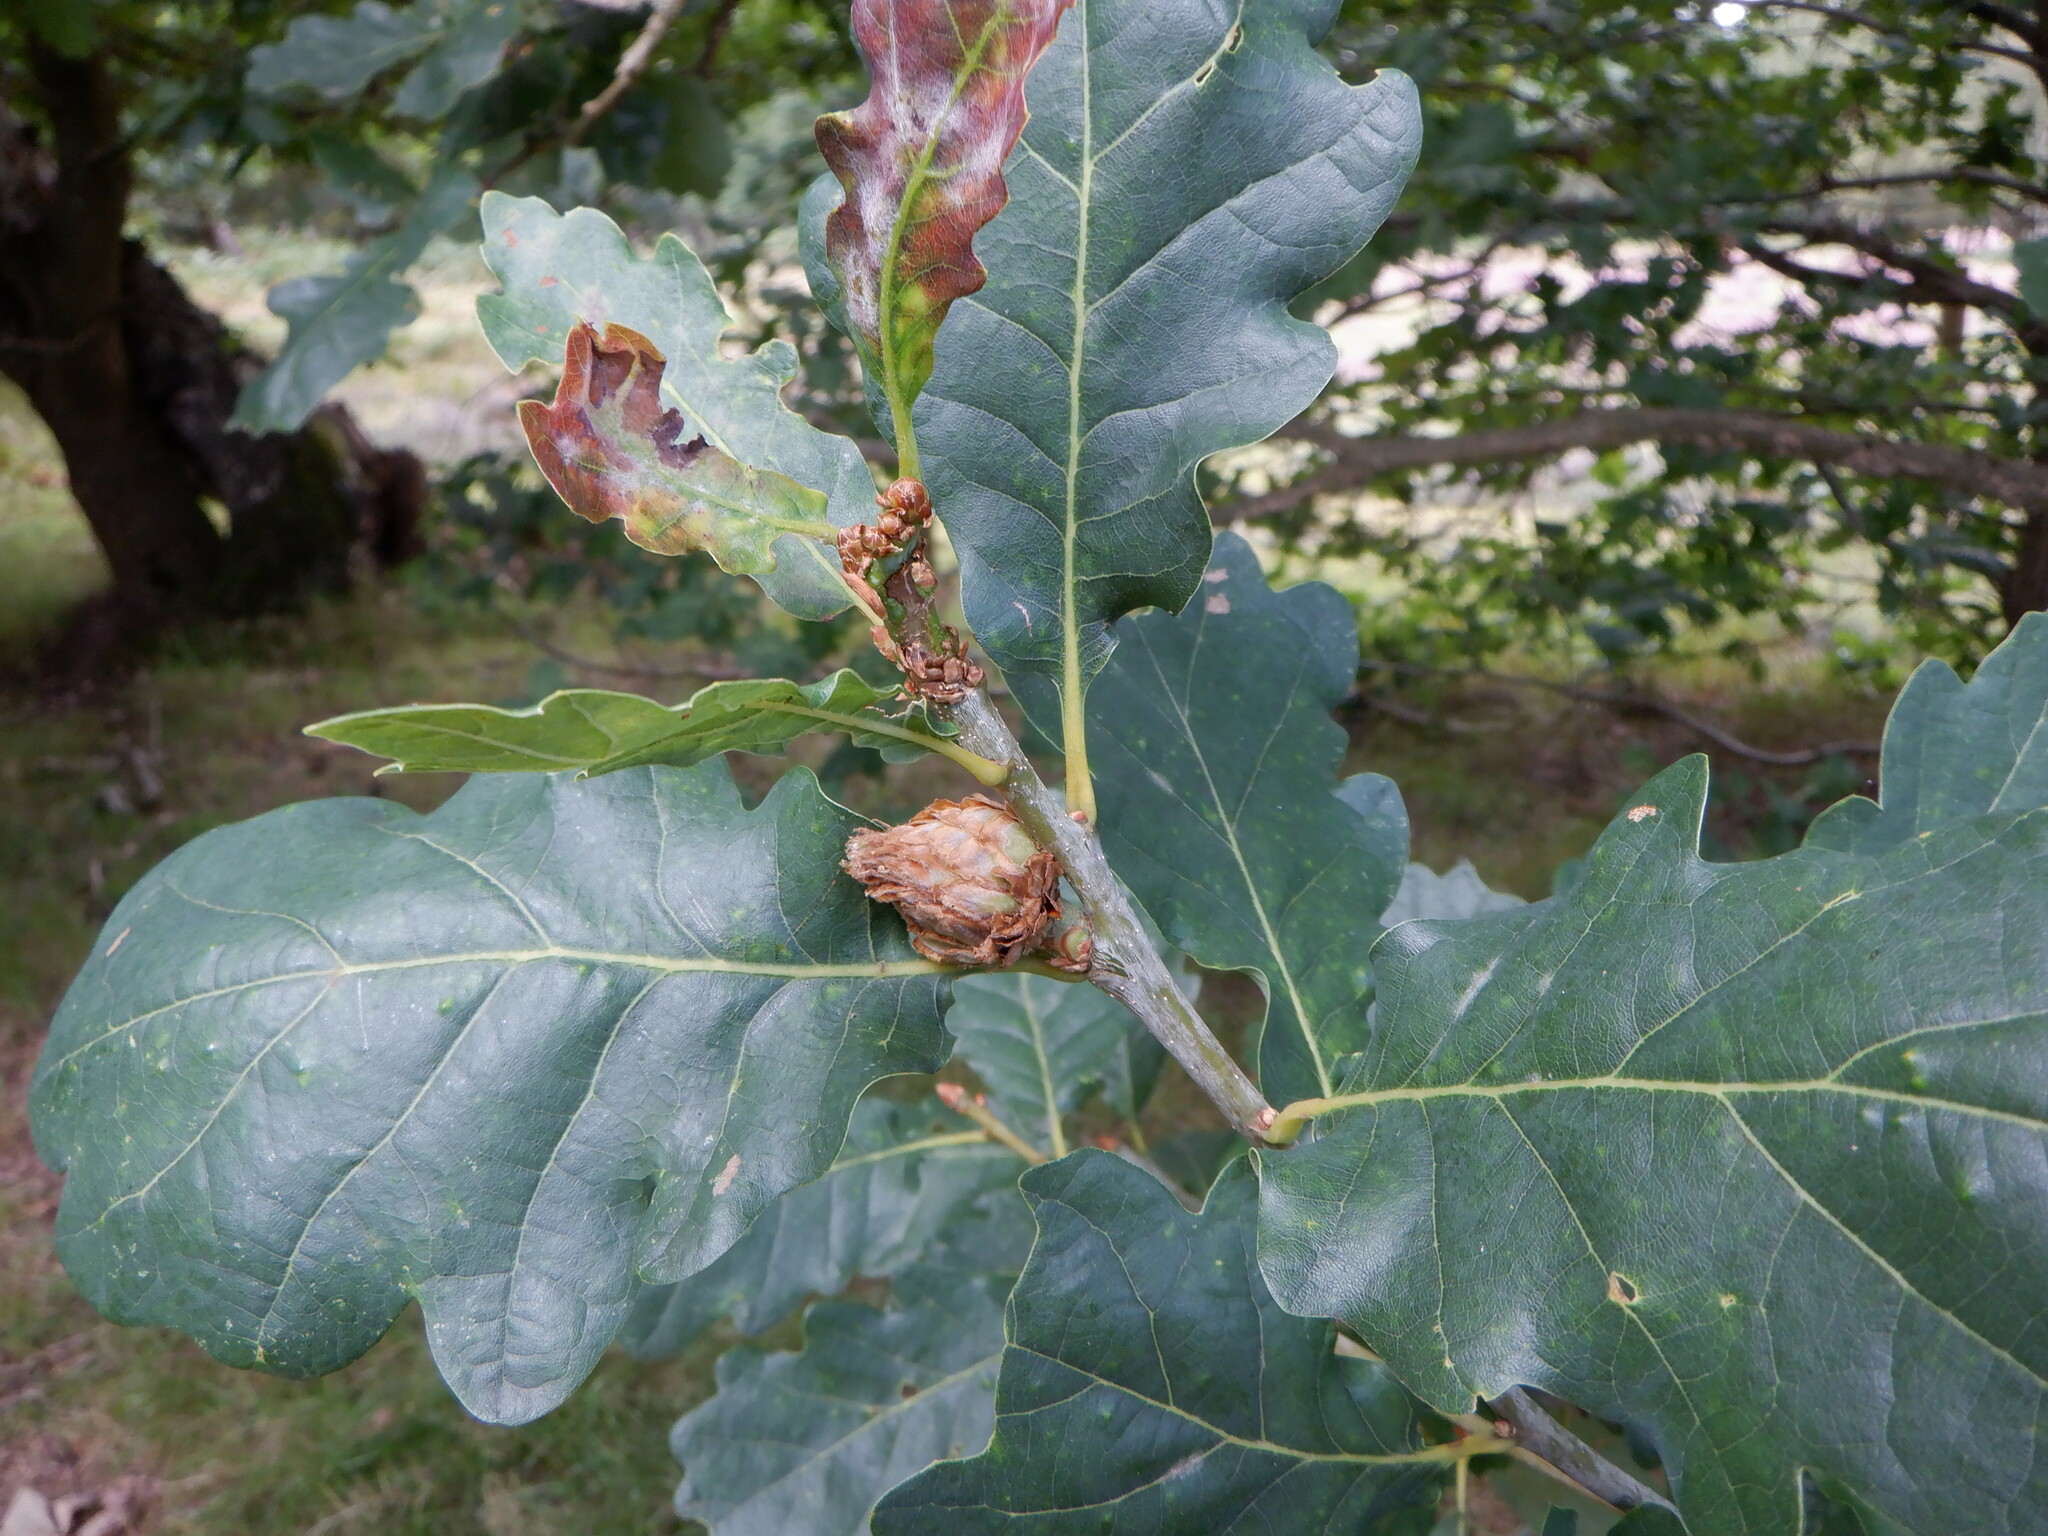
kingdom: Animalia
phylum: Arthropoda
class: Insecta
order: Hymenoptera
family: Cynipidae
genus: Andricus
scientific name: Andricus foecundatrix
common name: Artichoke gall
